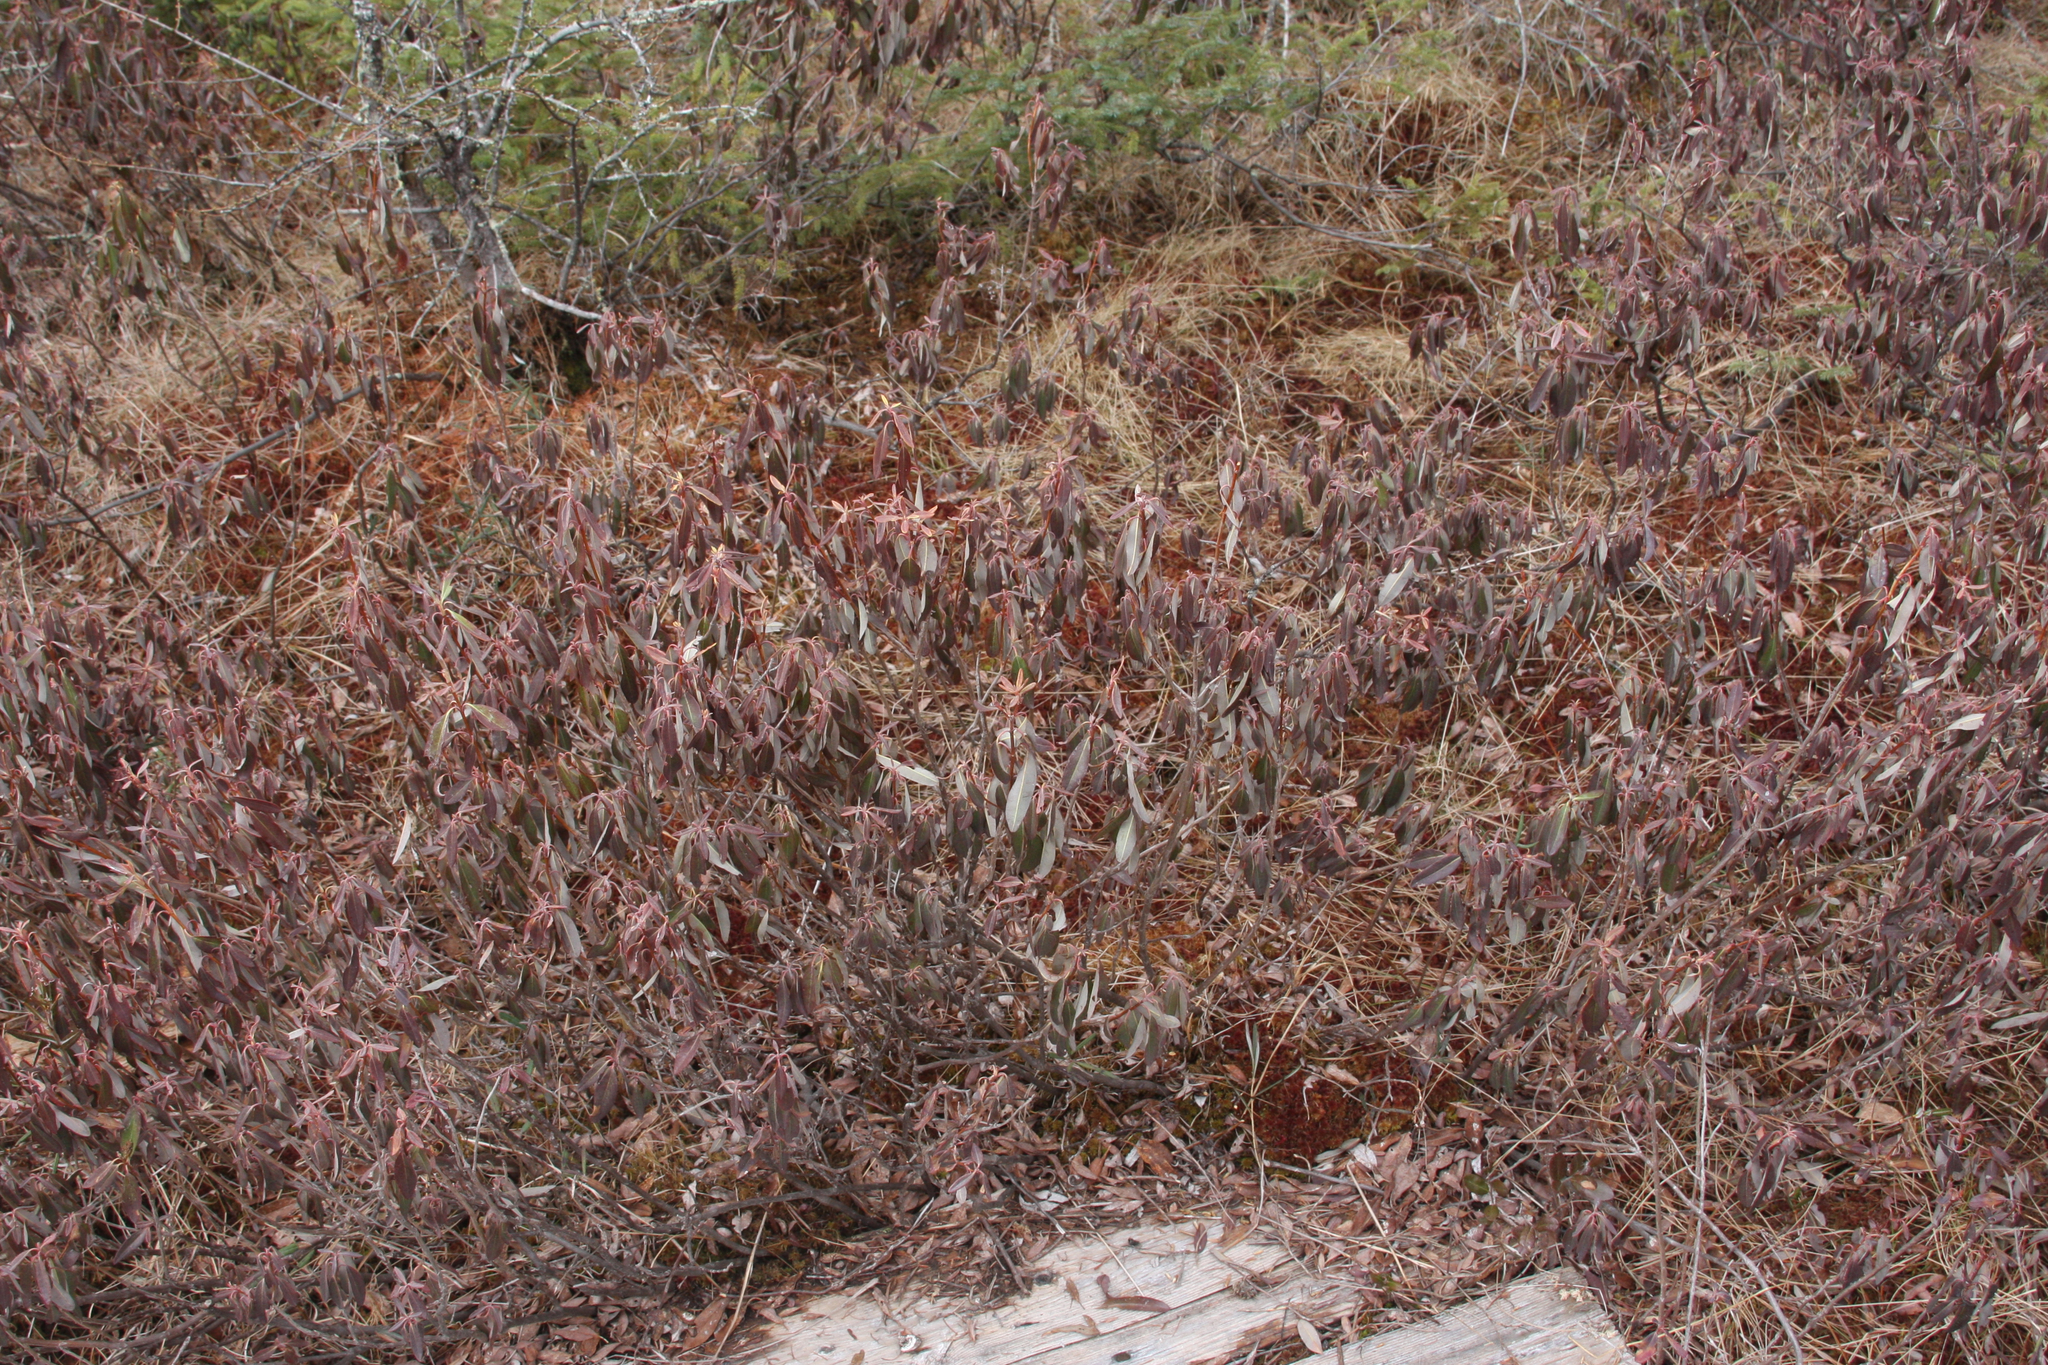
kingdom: Plantae
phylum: Tracheophyta
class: Magnoliopsida
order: Ericales
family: Ericaceae
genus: Kalmia
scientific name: Kalmia angustifolia
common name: Sheep-laurel
